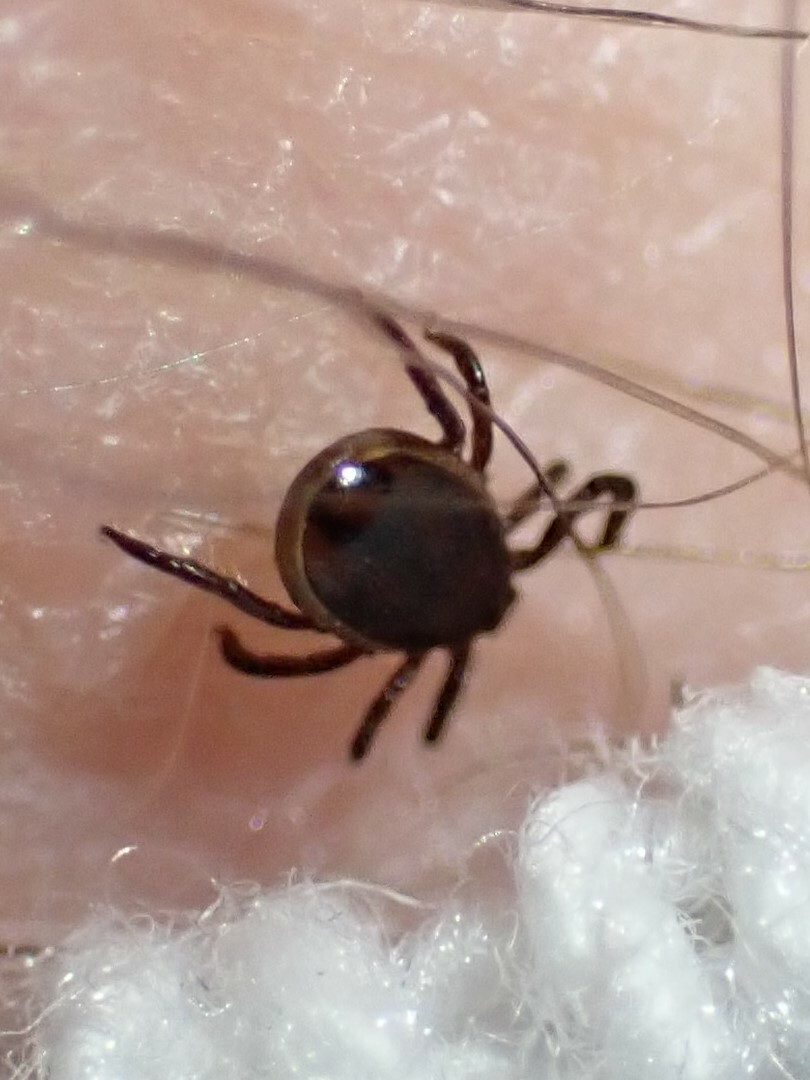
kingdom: Animalia
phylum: Arthropoda
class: Arachnida
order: Ixodida
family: Ixodidae
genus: Ixodes
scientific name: Ixodes scapularis
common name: Black legged tick
